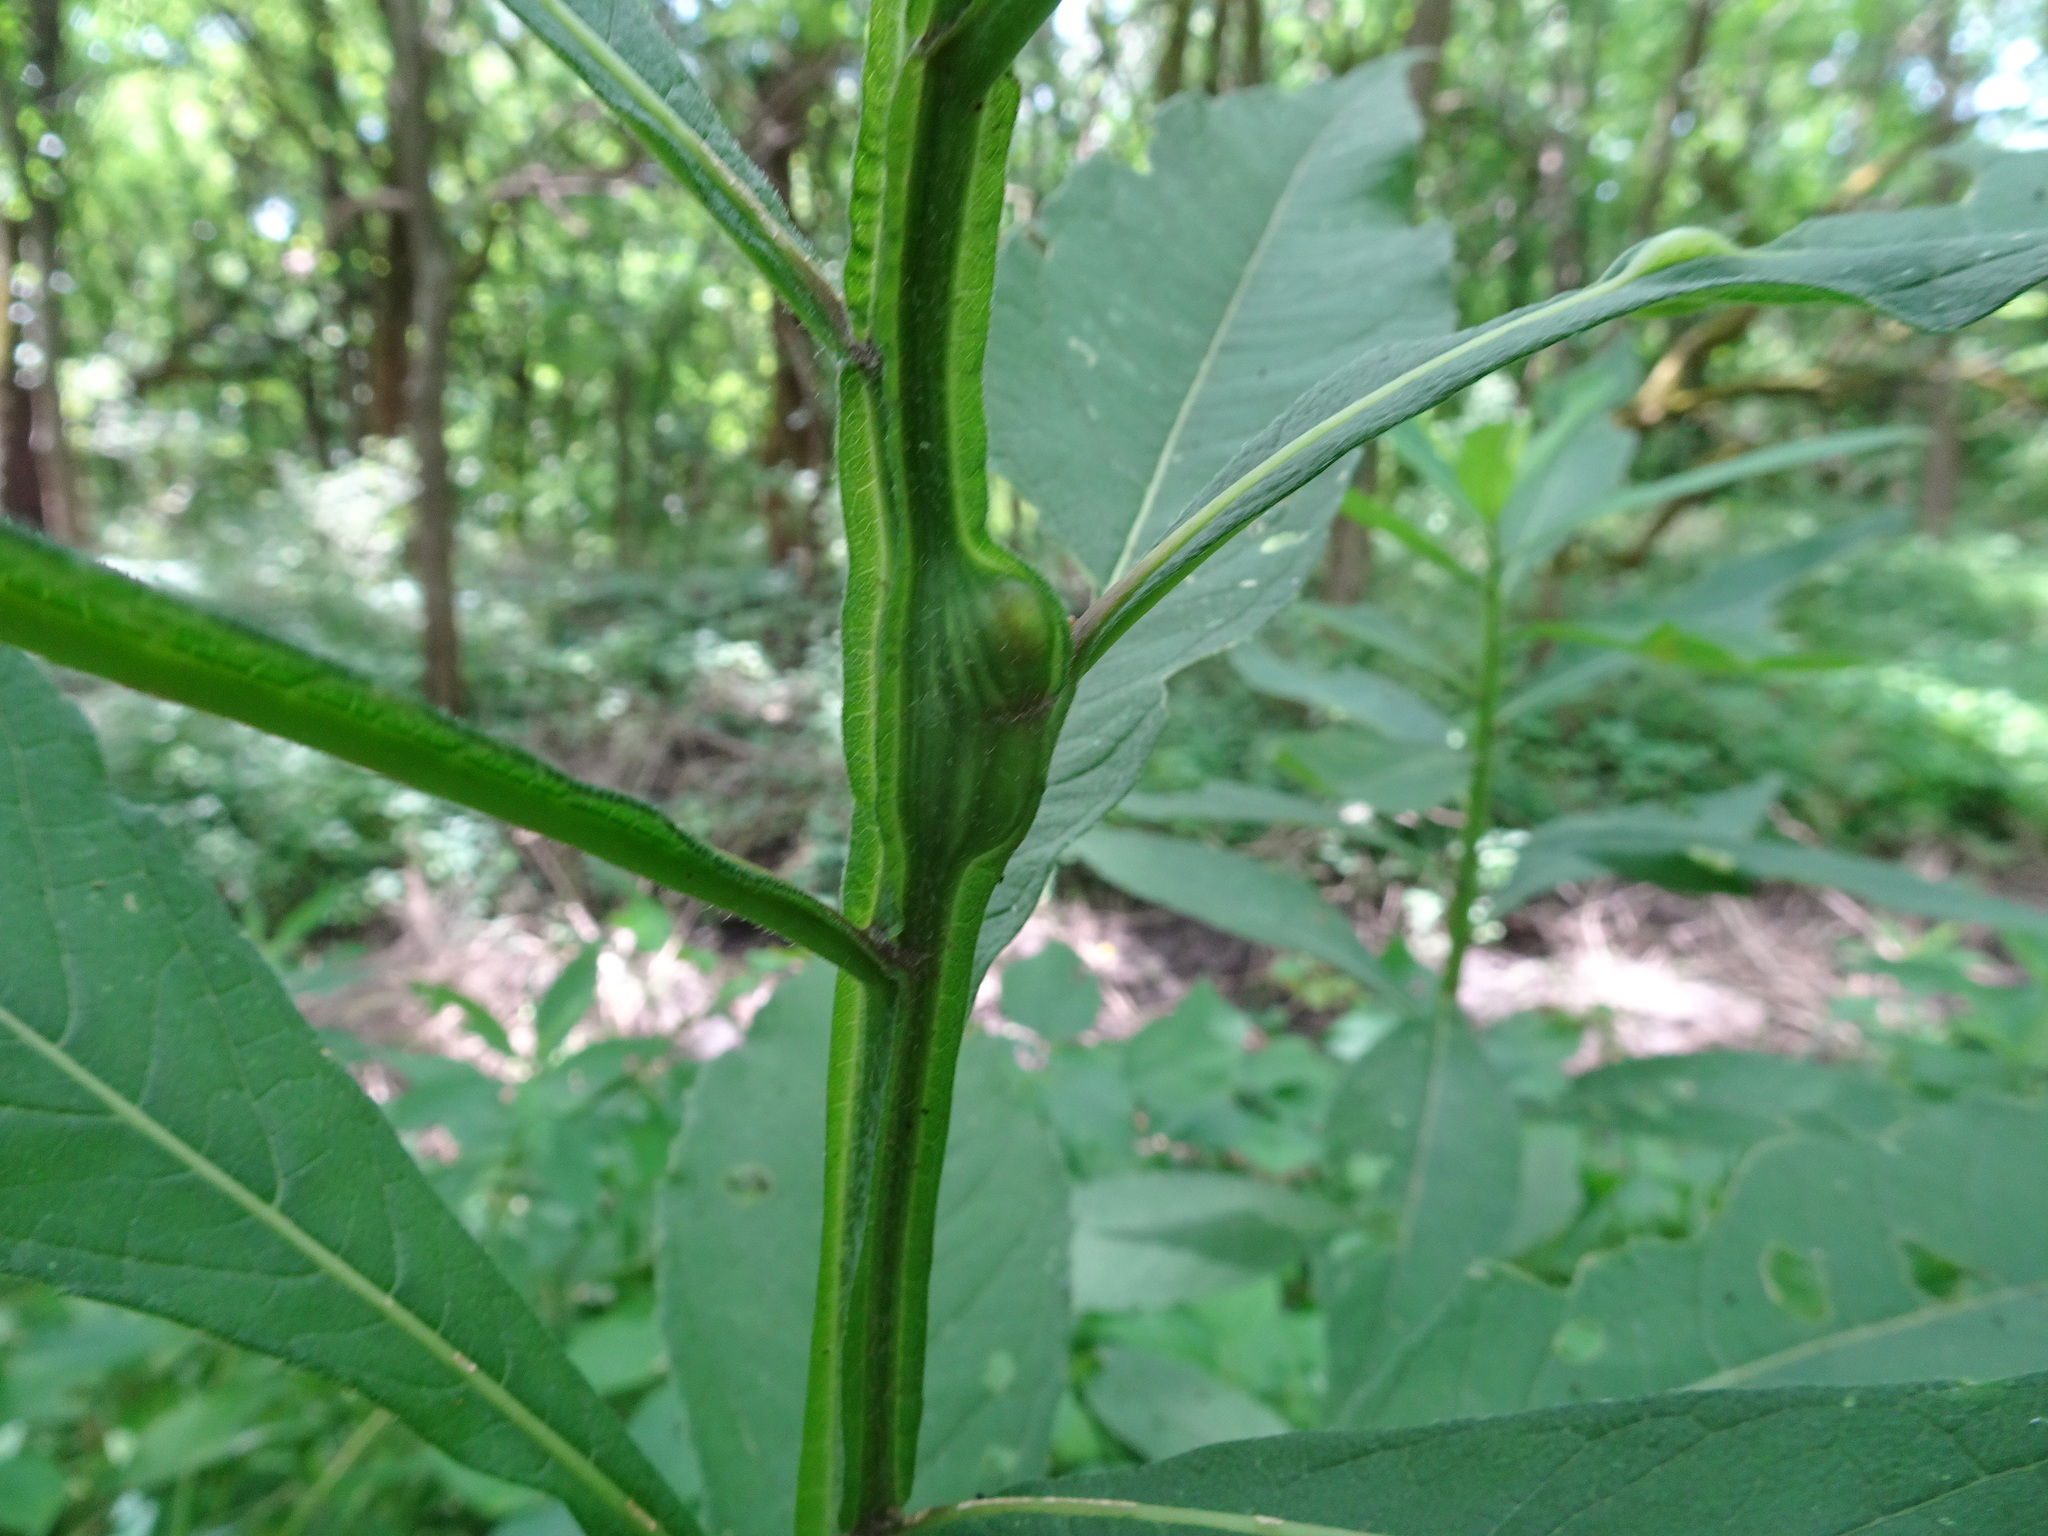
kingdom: Animalia
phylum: Arthropoda
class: Insecta
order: Diptera
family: Cecidomyiidae
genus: Neolasioptera
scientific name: Neolasioptera verbesinae
